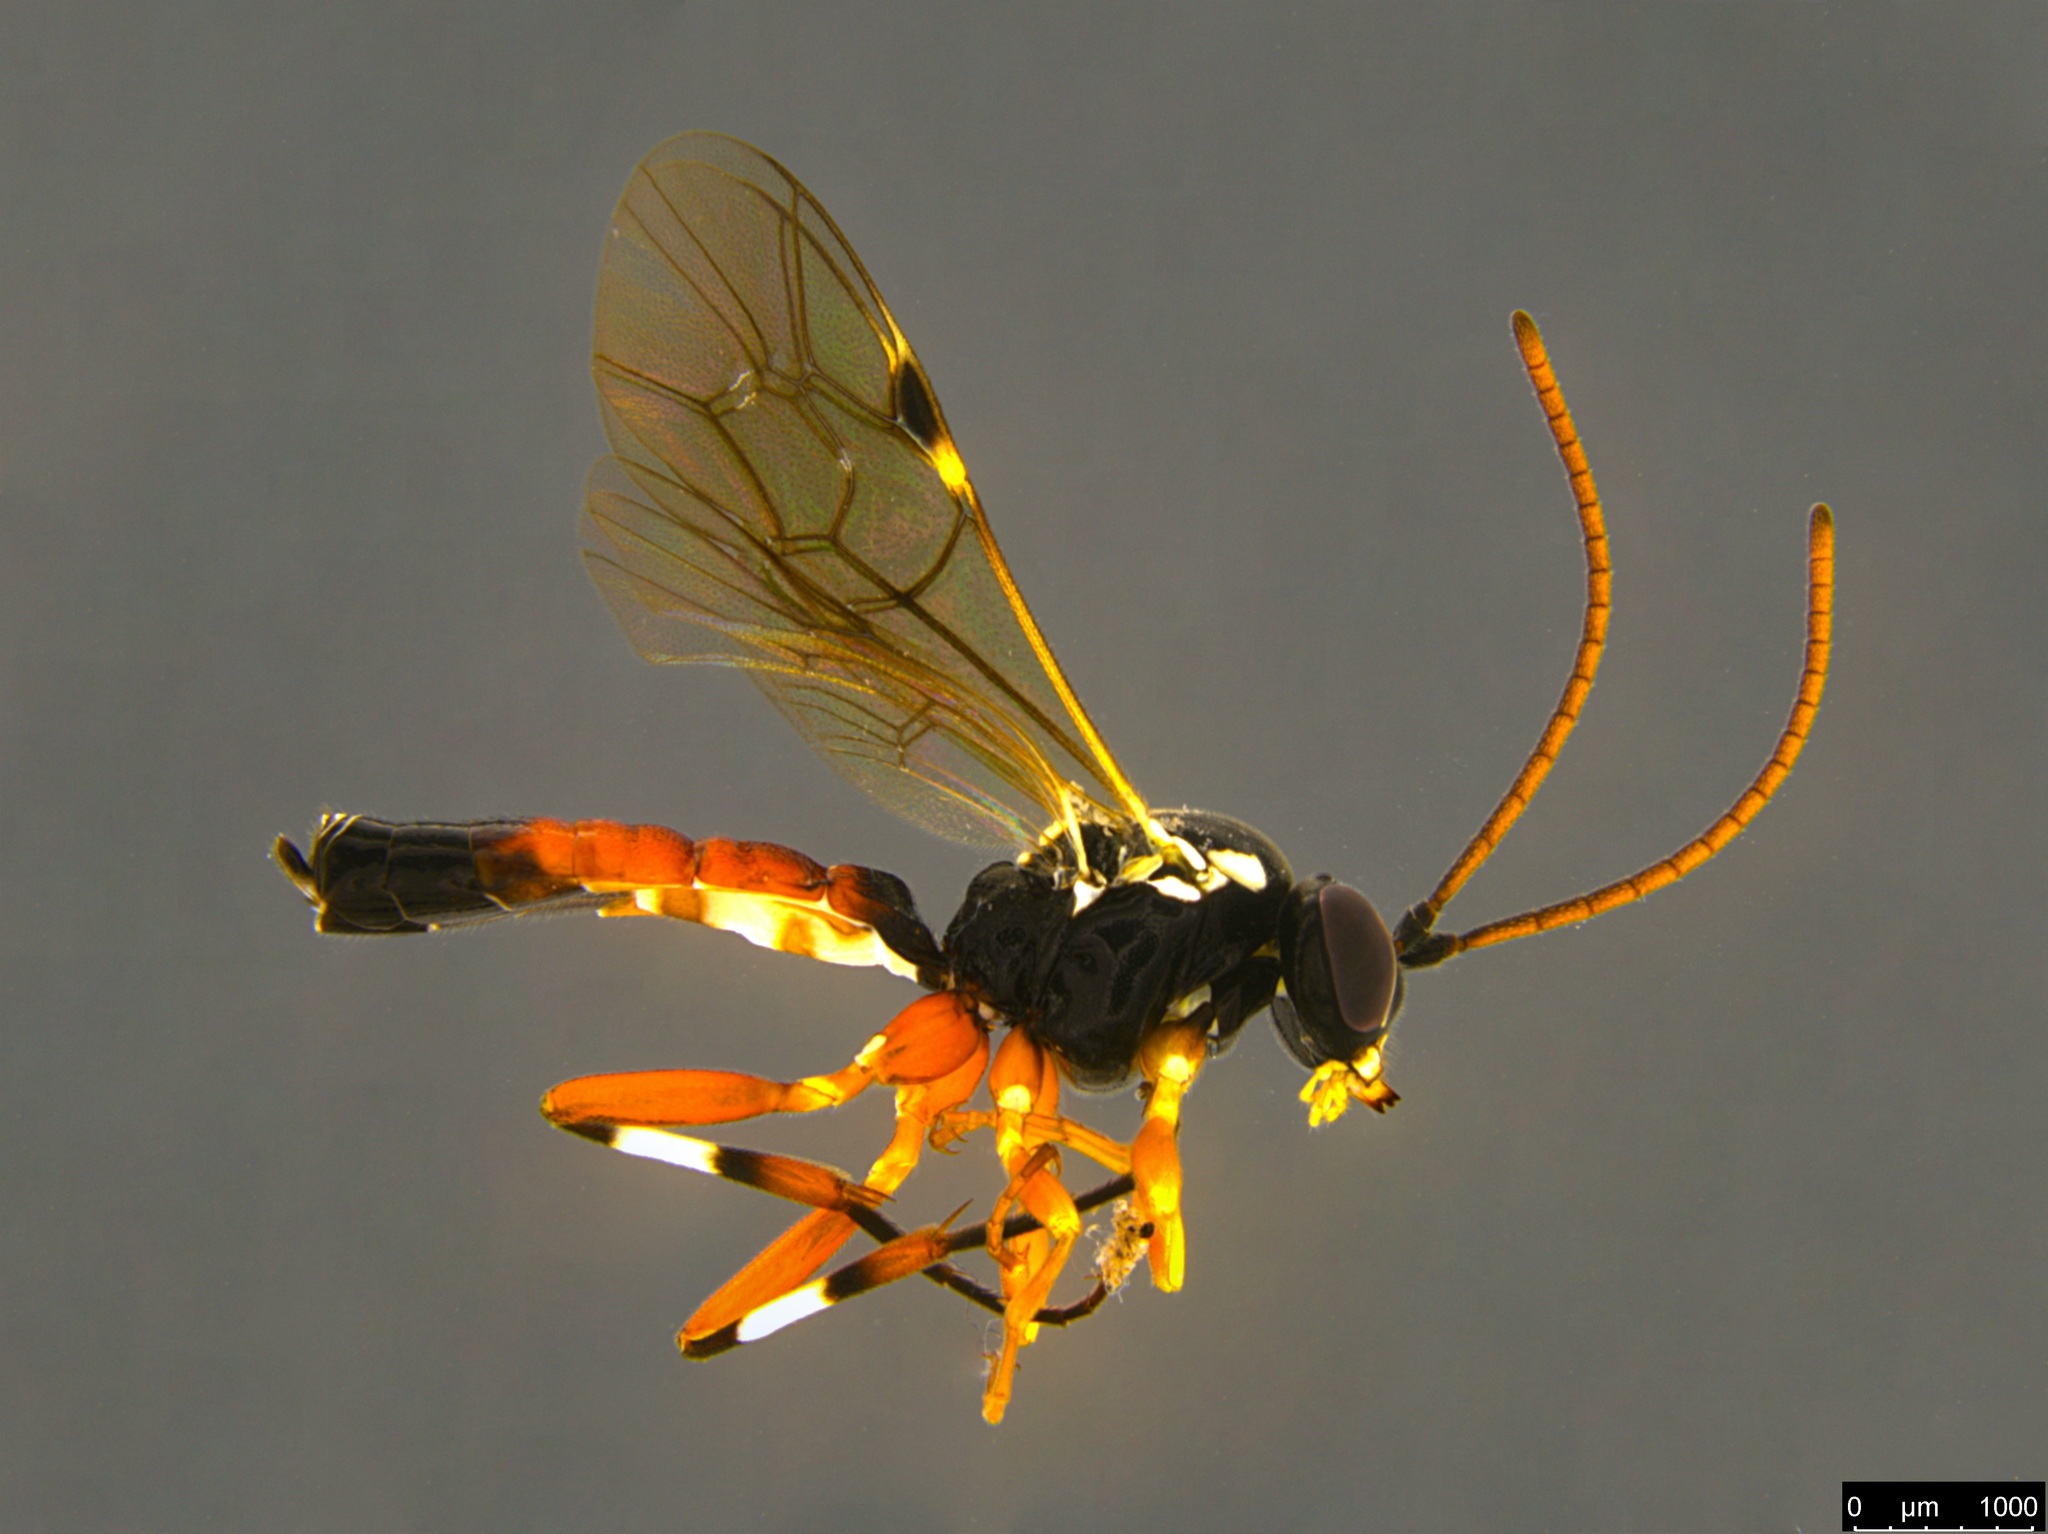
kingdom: Animalia
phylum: Arthropoda
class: Insecta
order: Hymenoptera
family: Ichneumonidae
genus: Diplazon
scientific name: Diplazon laetatorius
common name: Parasitoid wasp
